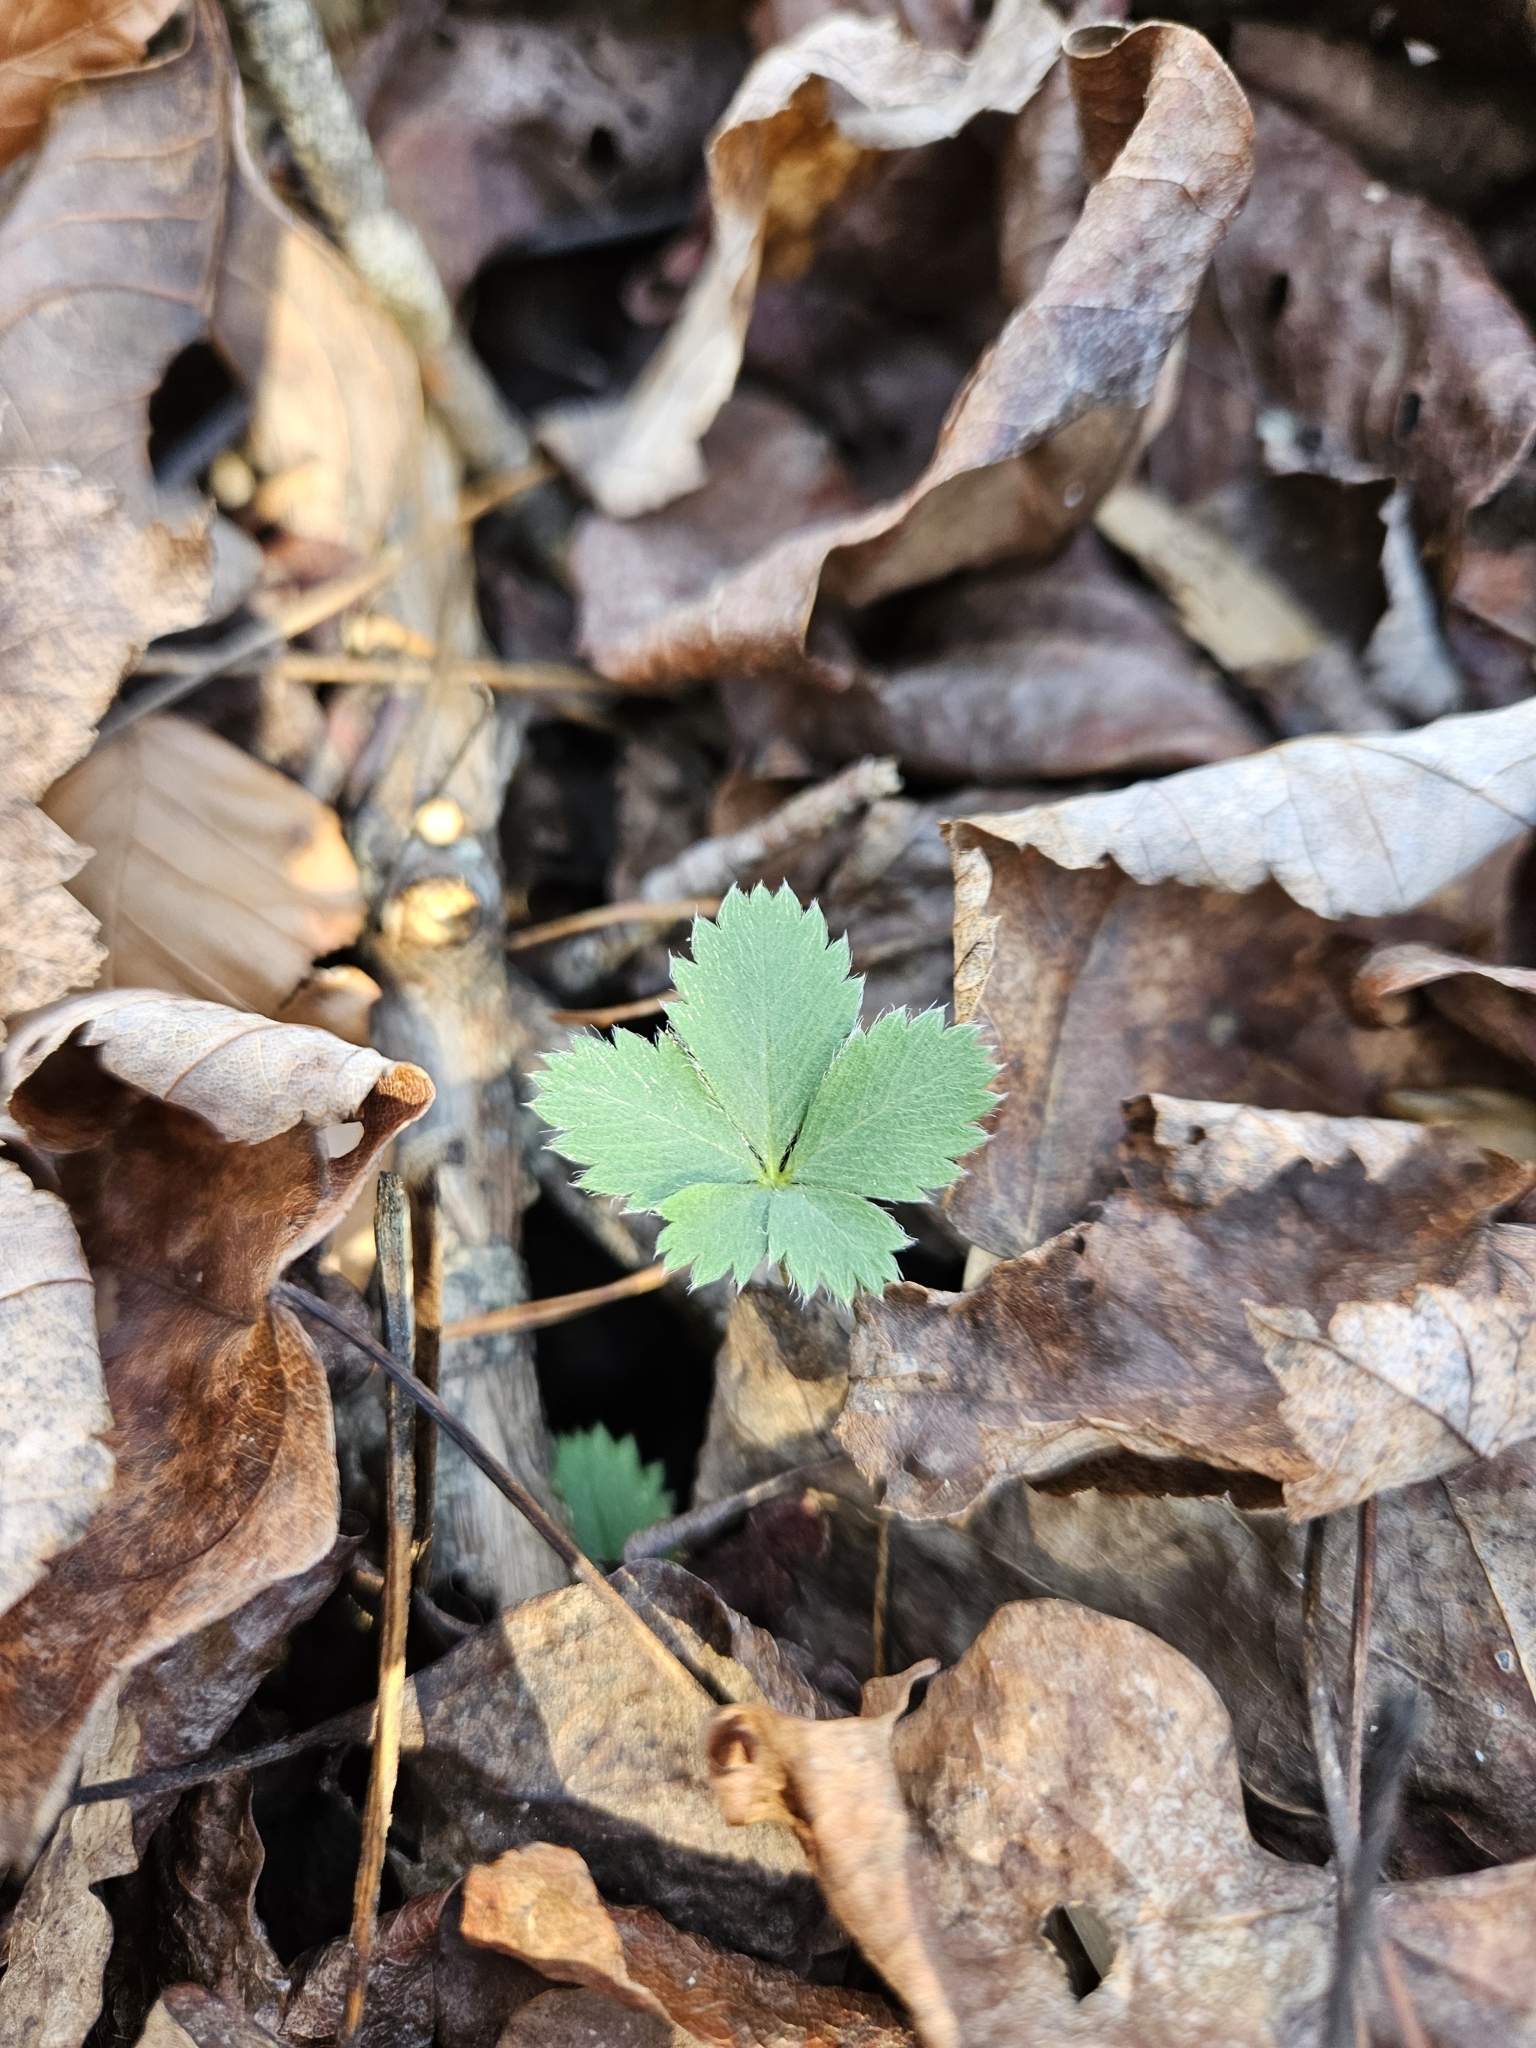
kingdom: Plantae
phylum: Tracheophyta
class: Magnoliopsida
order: Rosales
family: Rosaceae
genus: Potentilla
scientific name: Potentilla canadensis
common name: Canada cinquefoil
